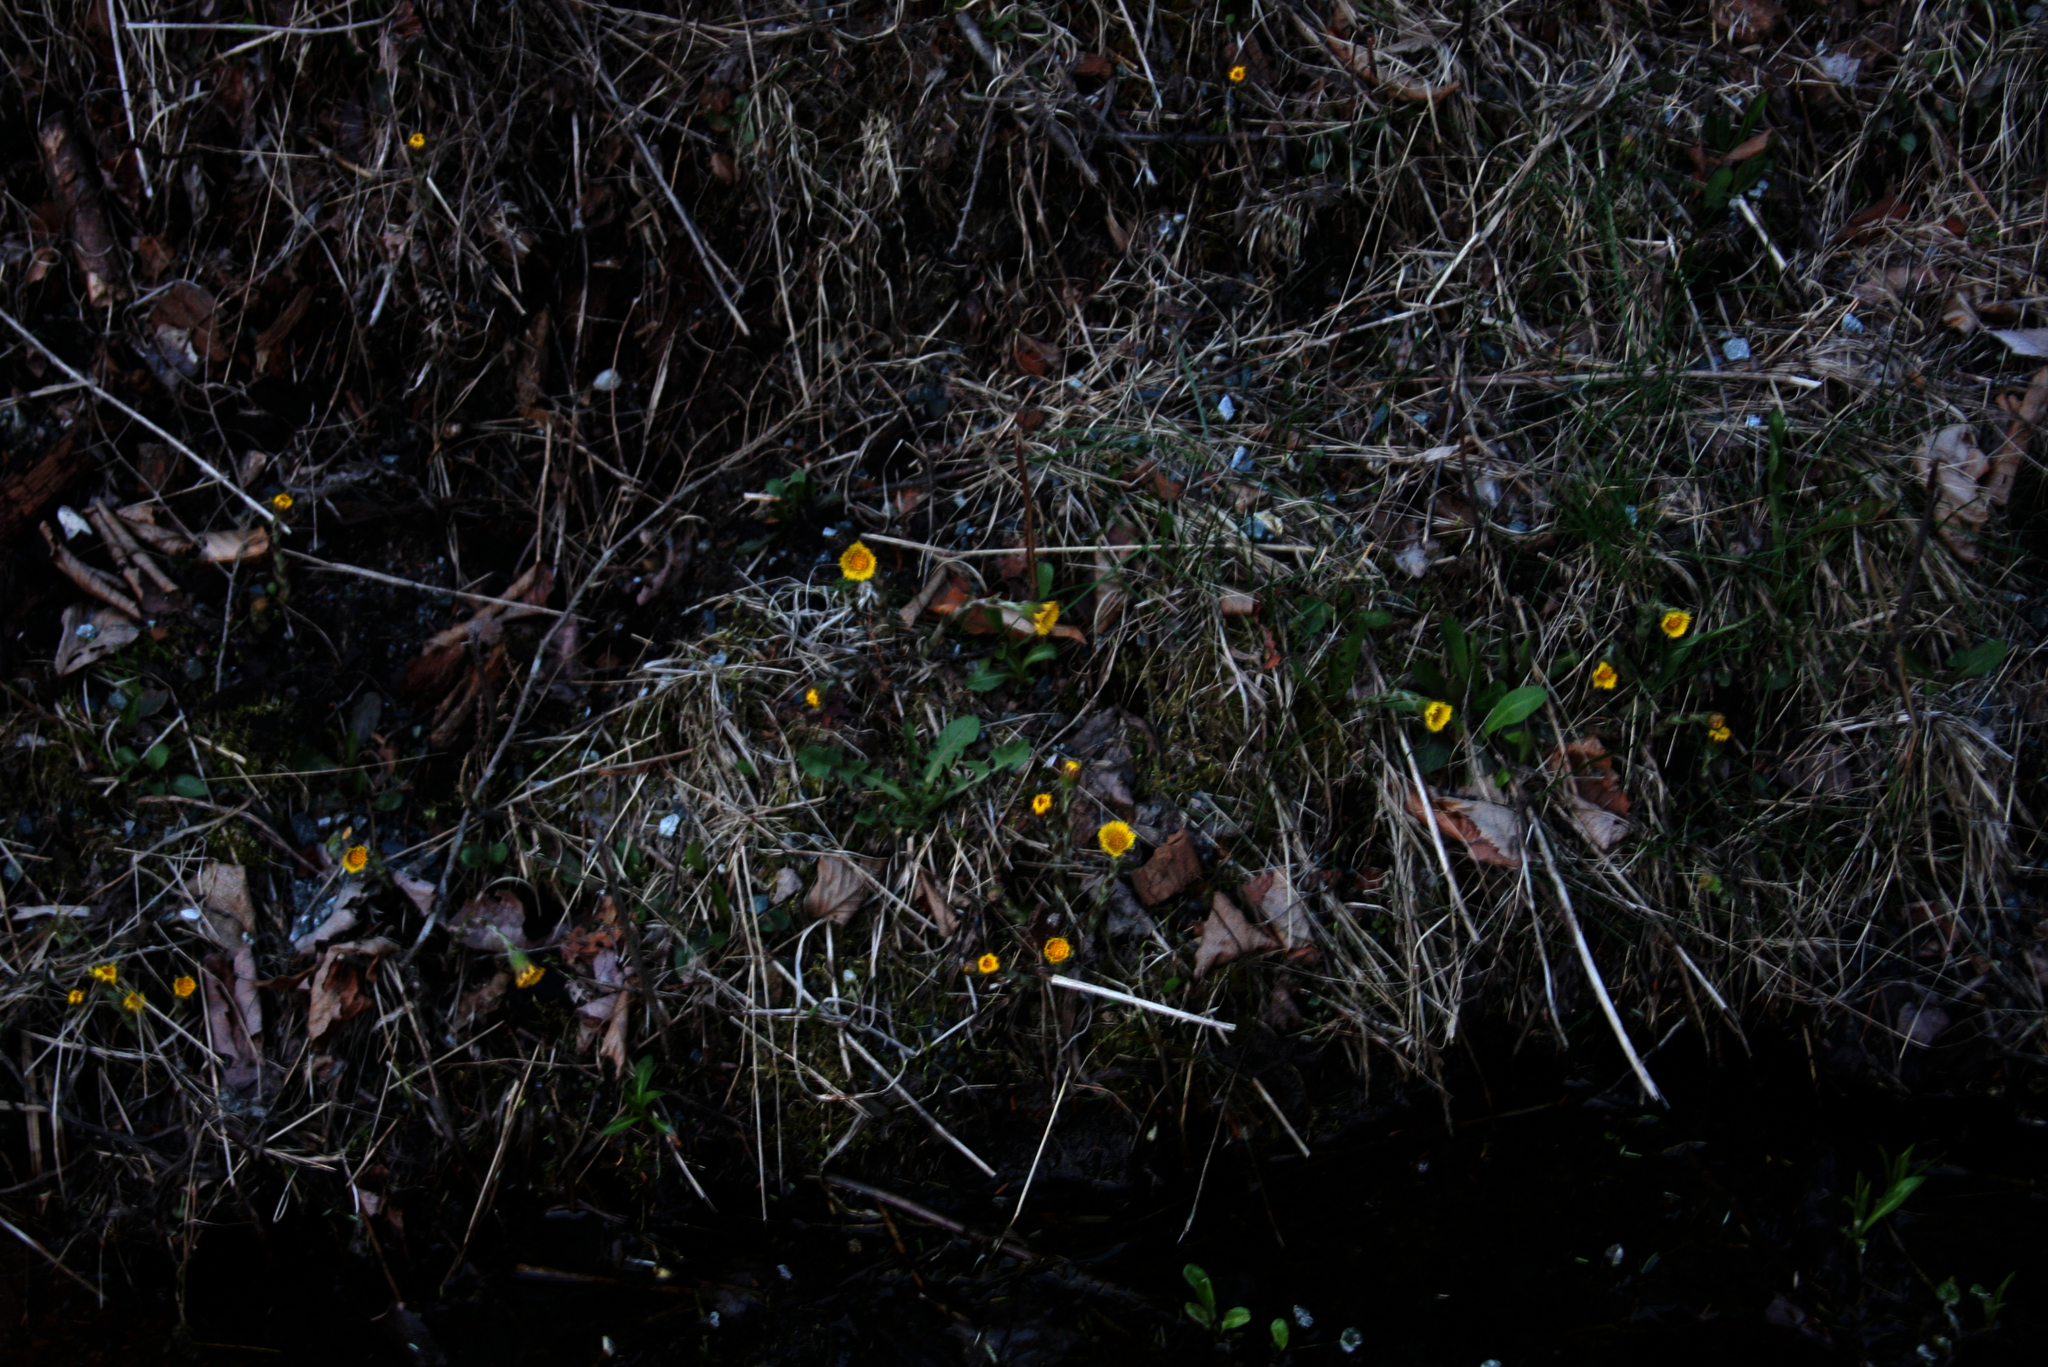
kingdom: Plantae
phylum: Tracheophyta
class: Magnoliopsida
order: Asterales
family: Asteraceae
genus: Tussilago
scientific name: Tussilago farfara
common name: Coltsfoot
